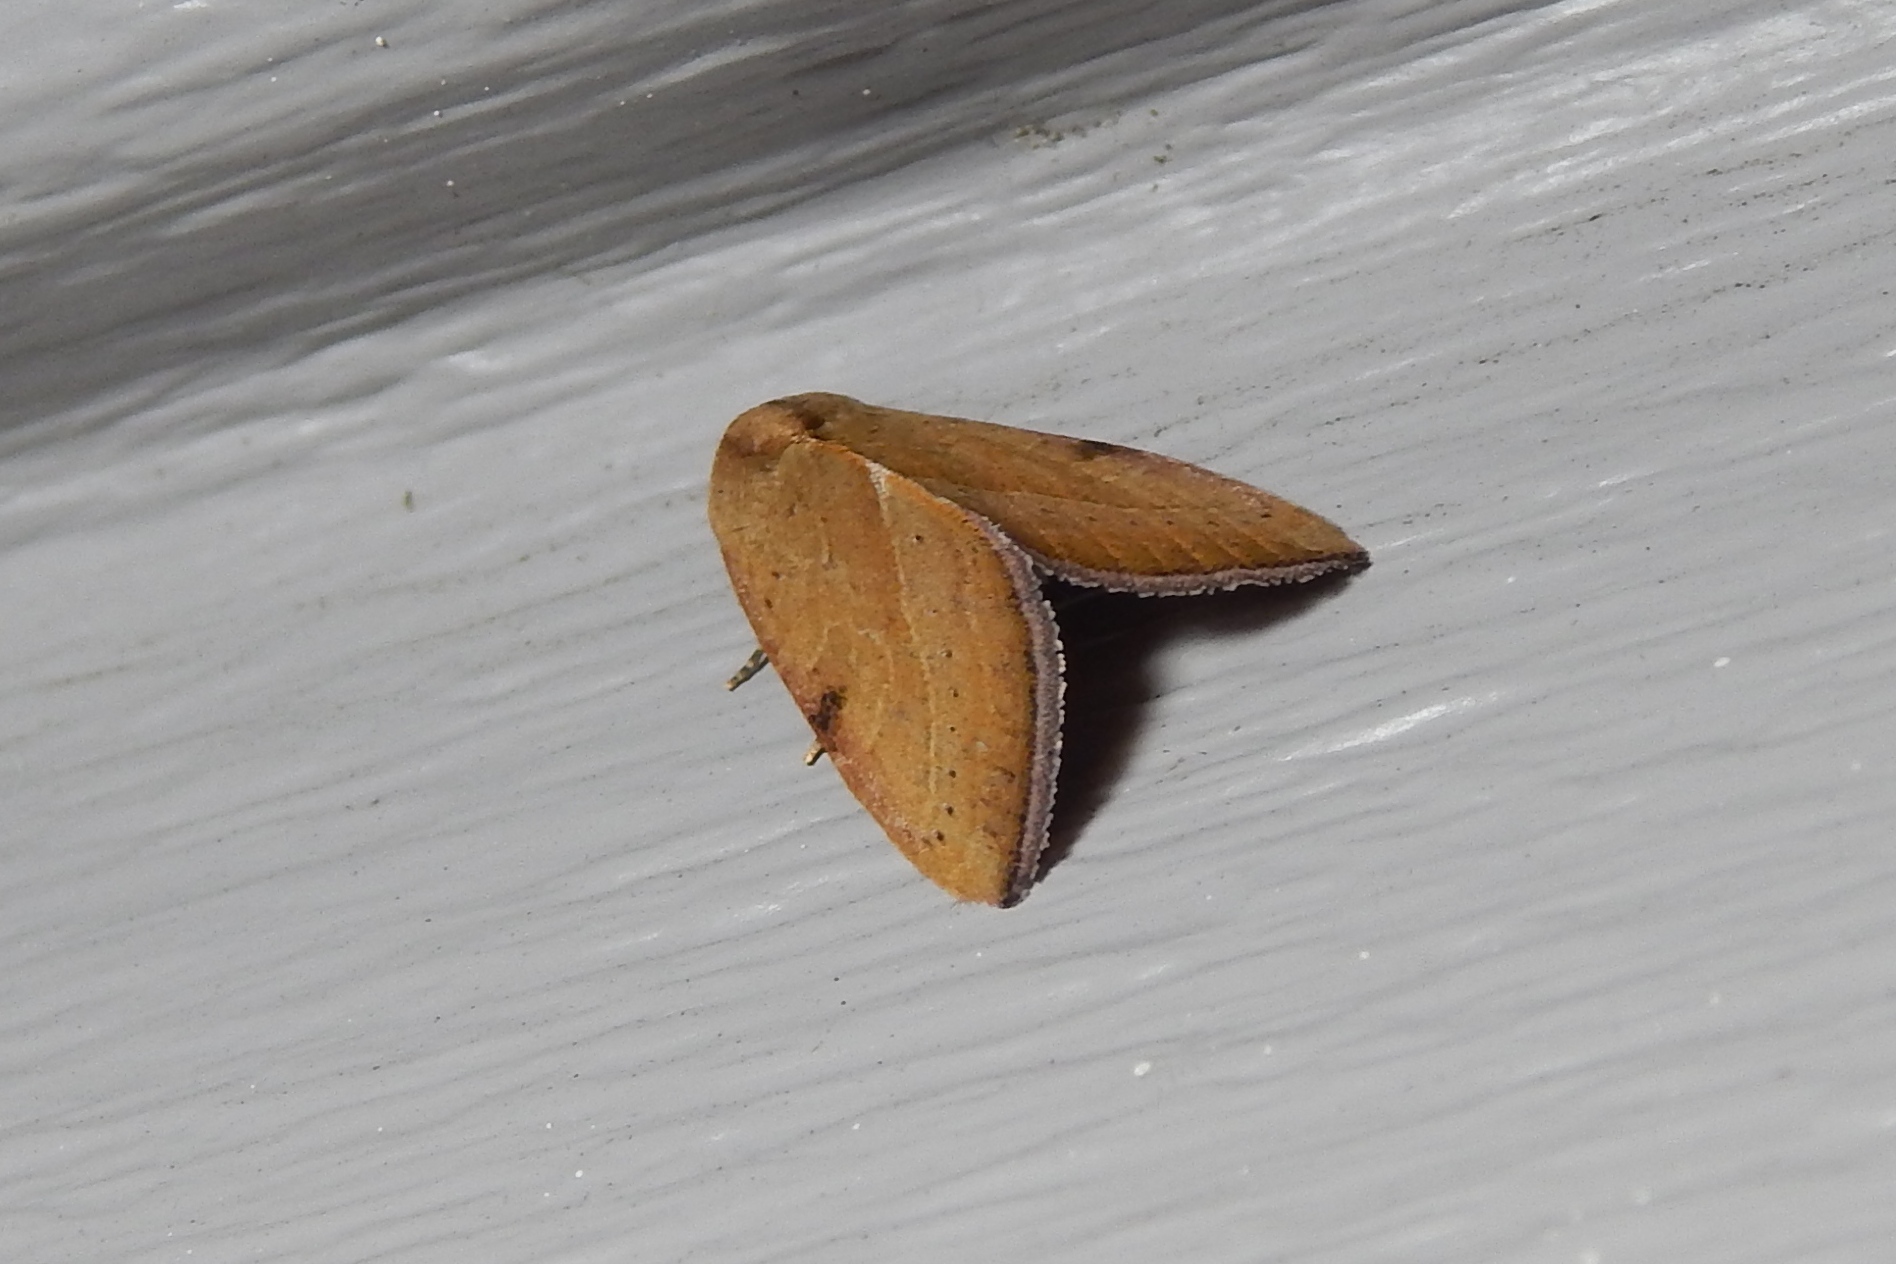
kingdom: Animalia
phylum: Arthropoda
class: Insecta
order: Lepidoptera
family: Noctuidae
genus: Galgula
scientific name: Galgula partita
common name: Wedgeling
